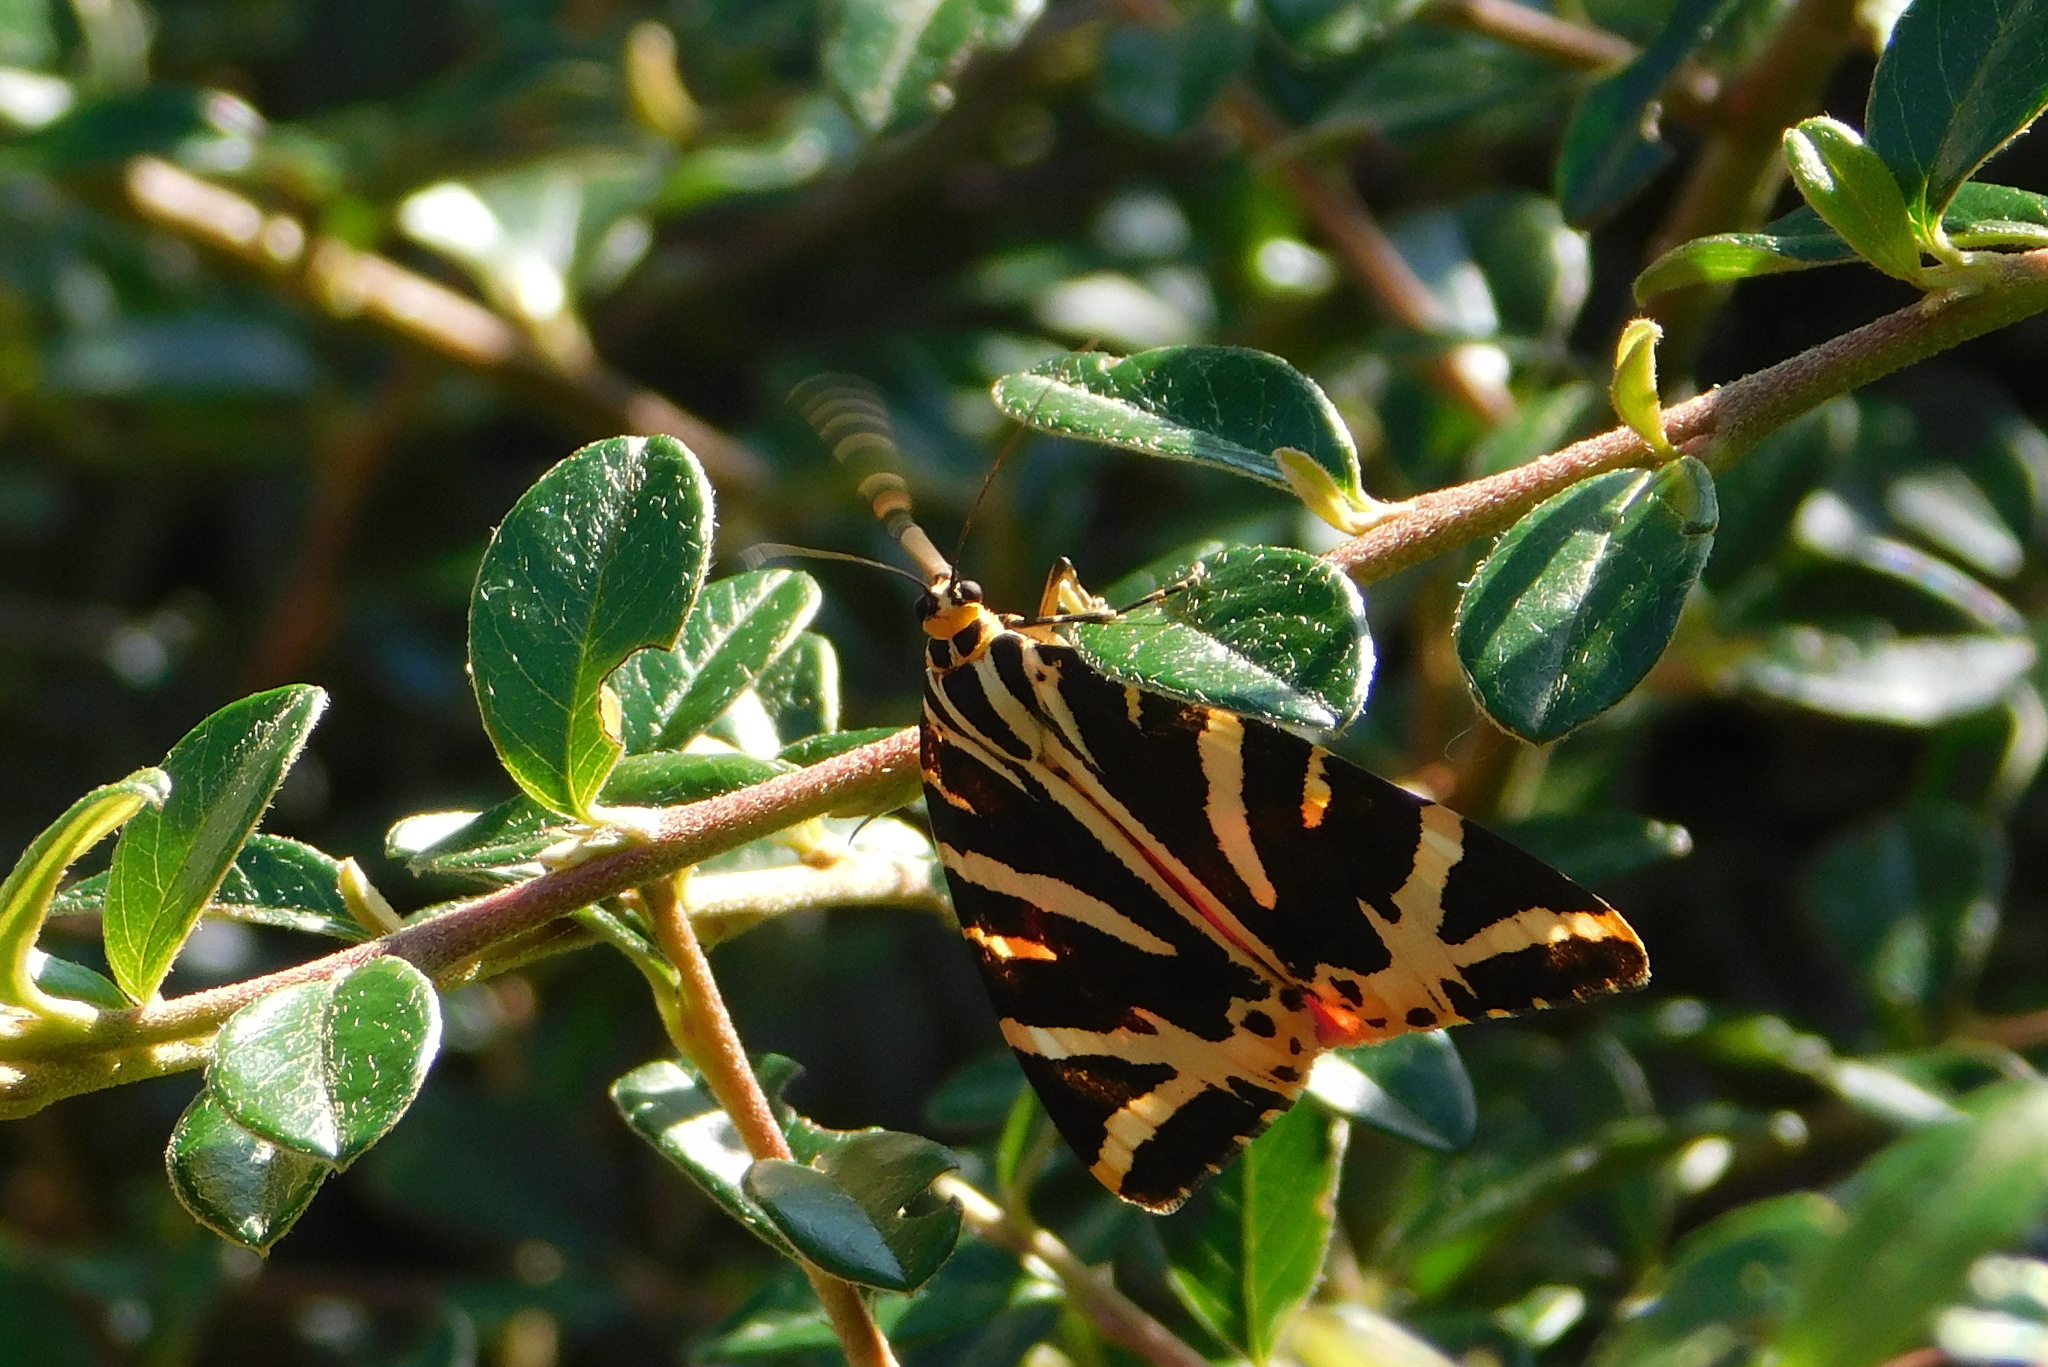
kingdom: Animalia
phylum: Arthropoda
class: Insecta
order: Lepidoptera
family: Erebidae
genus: Euplagia
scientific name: Euplagia quadripunctaria
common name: Jersey tiger
